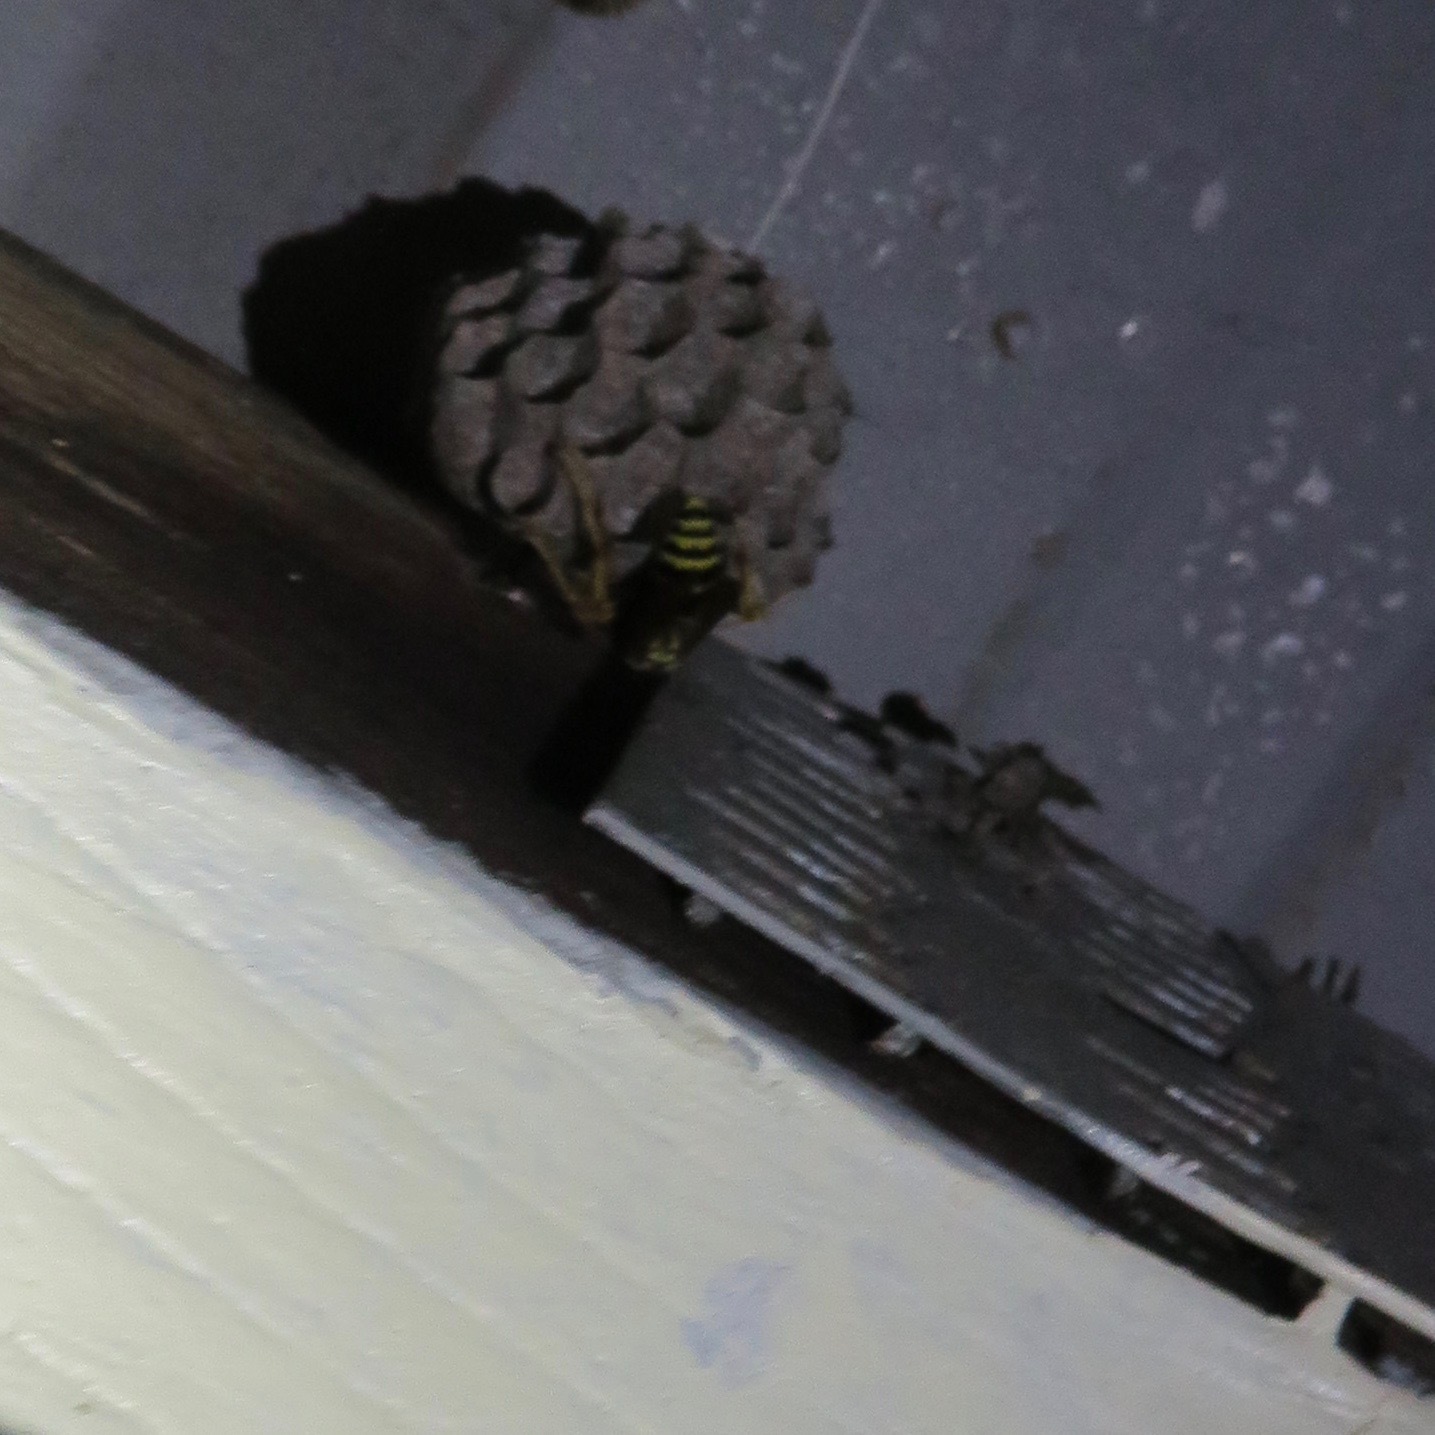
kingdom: Animalia
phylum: Arthropoda
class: Insecta
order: Hymenoptera
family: Eumenidae
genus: Polistes
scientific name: Polistes dominula
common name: Paper wasp
